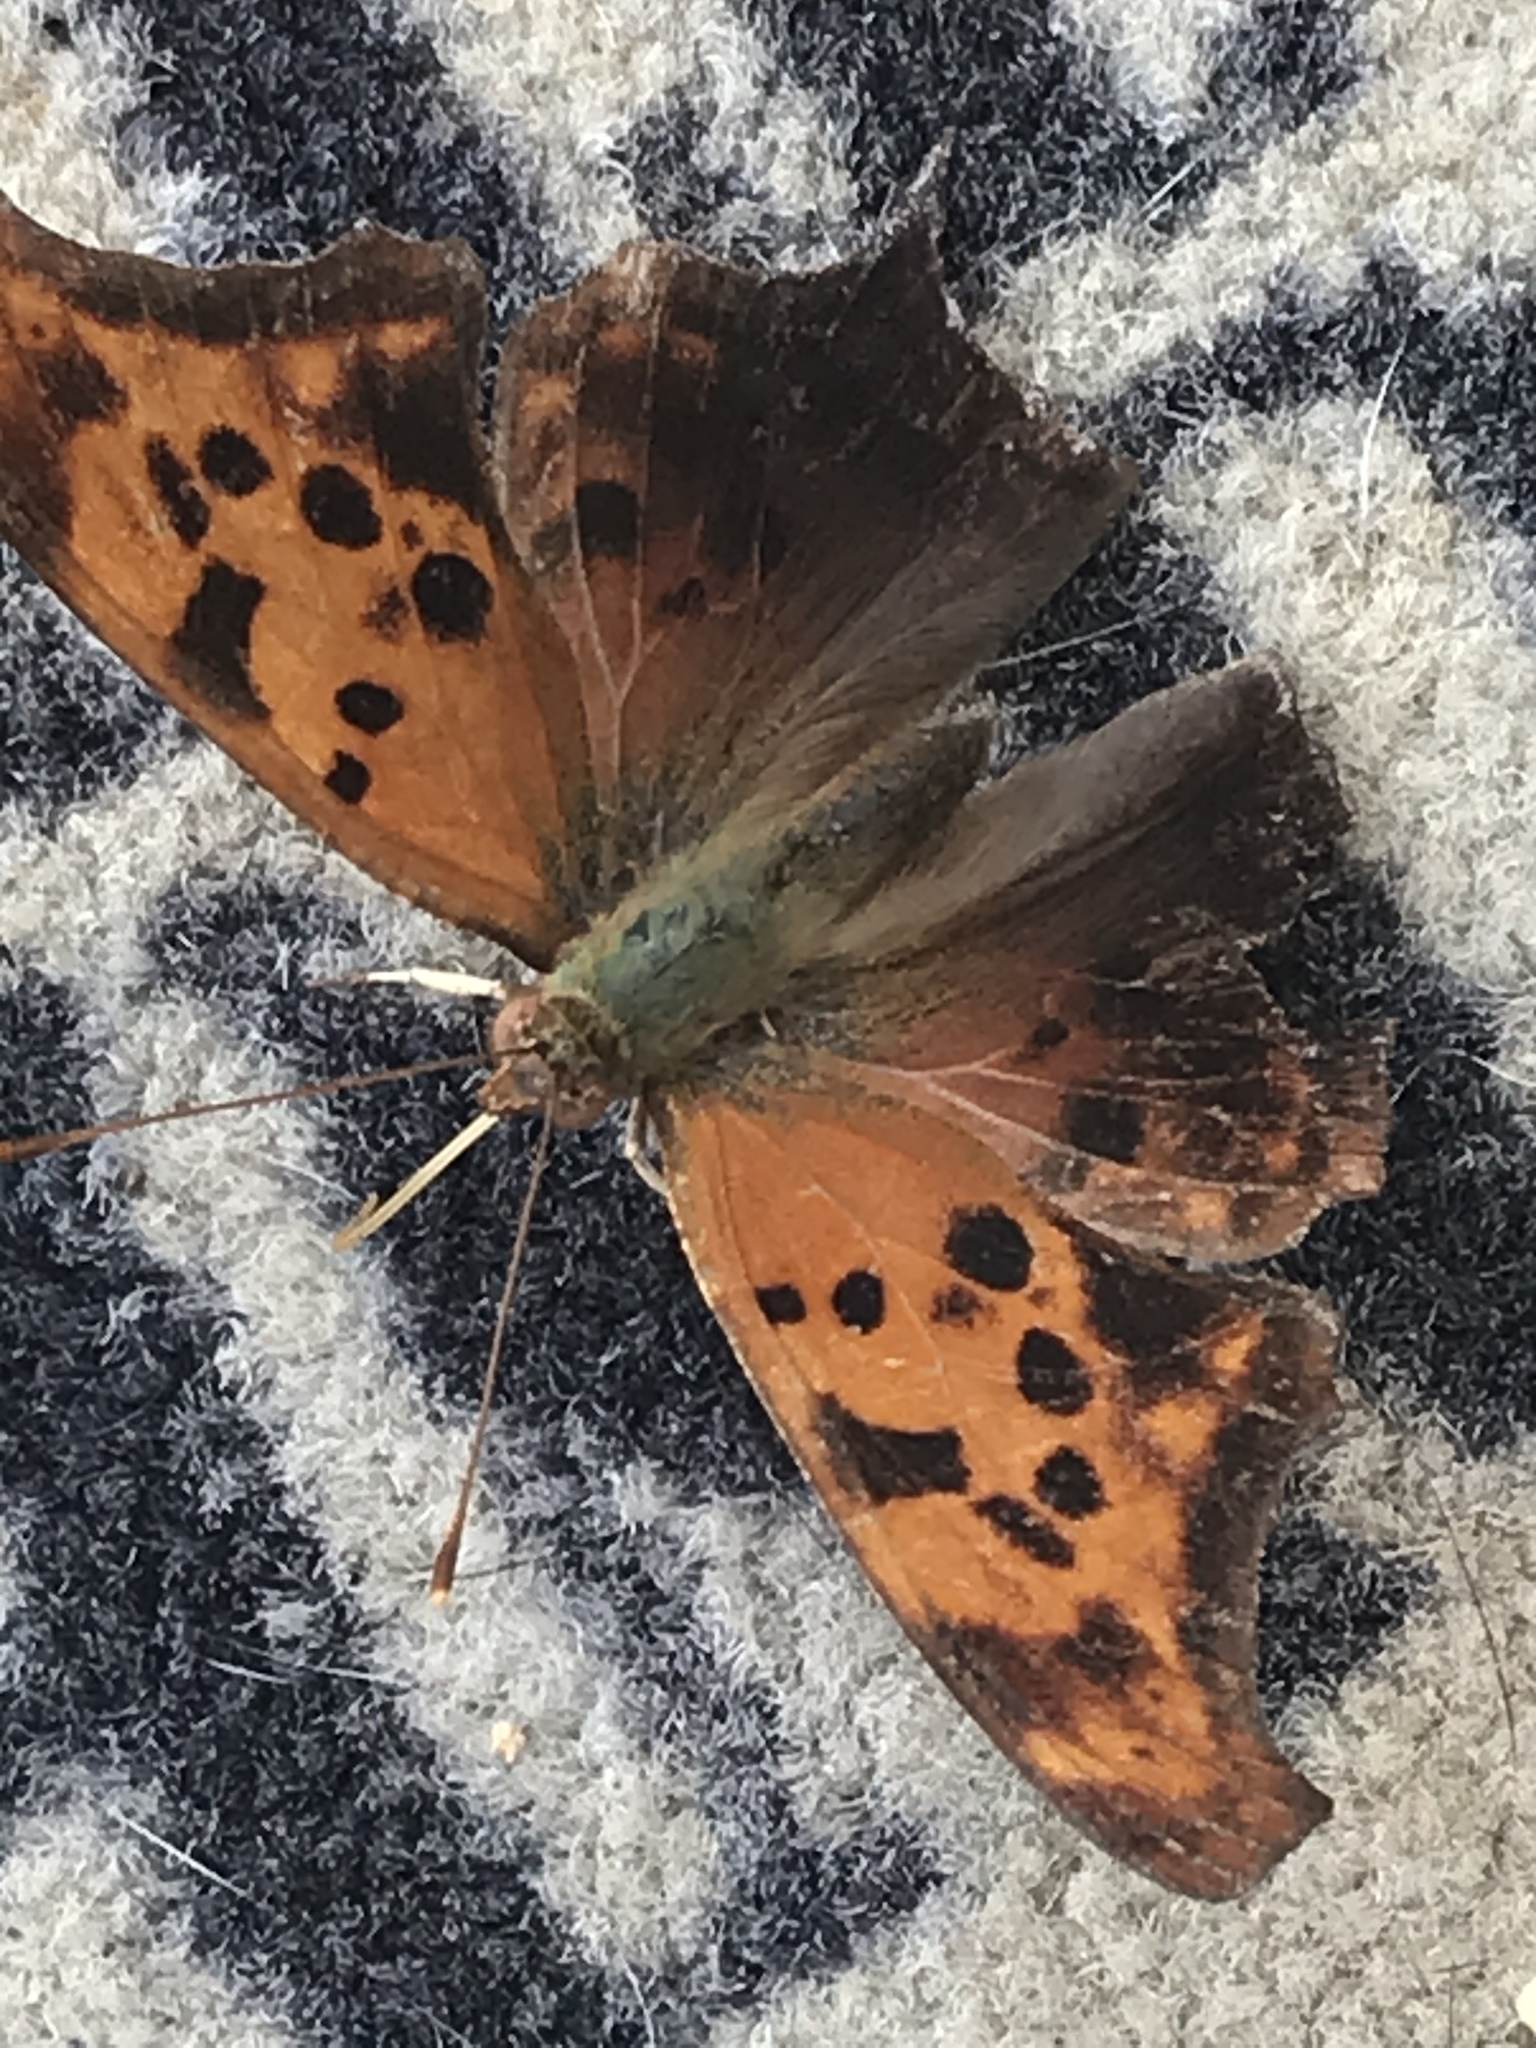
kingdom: Animalia
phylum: Arthropoda
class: Insecta
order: Lepidoptera
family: Nymphalidae
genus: Polygonia
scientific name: Polygonia interrogationis
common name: Question mark
